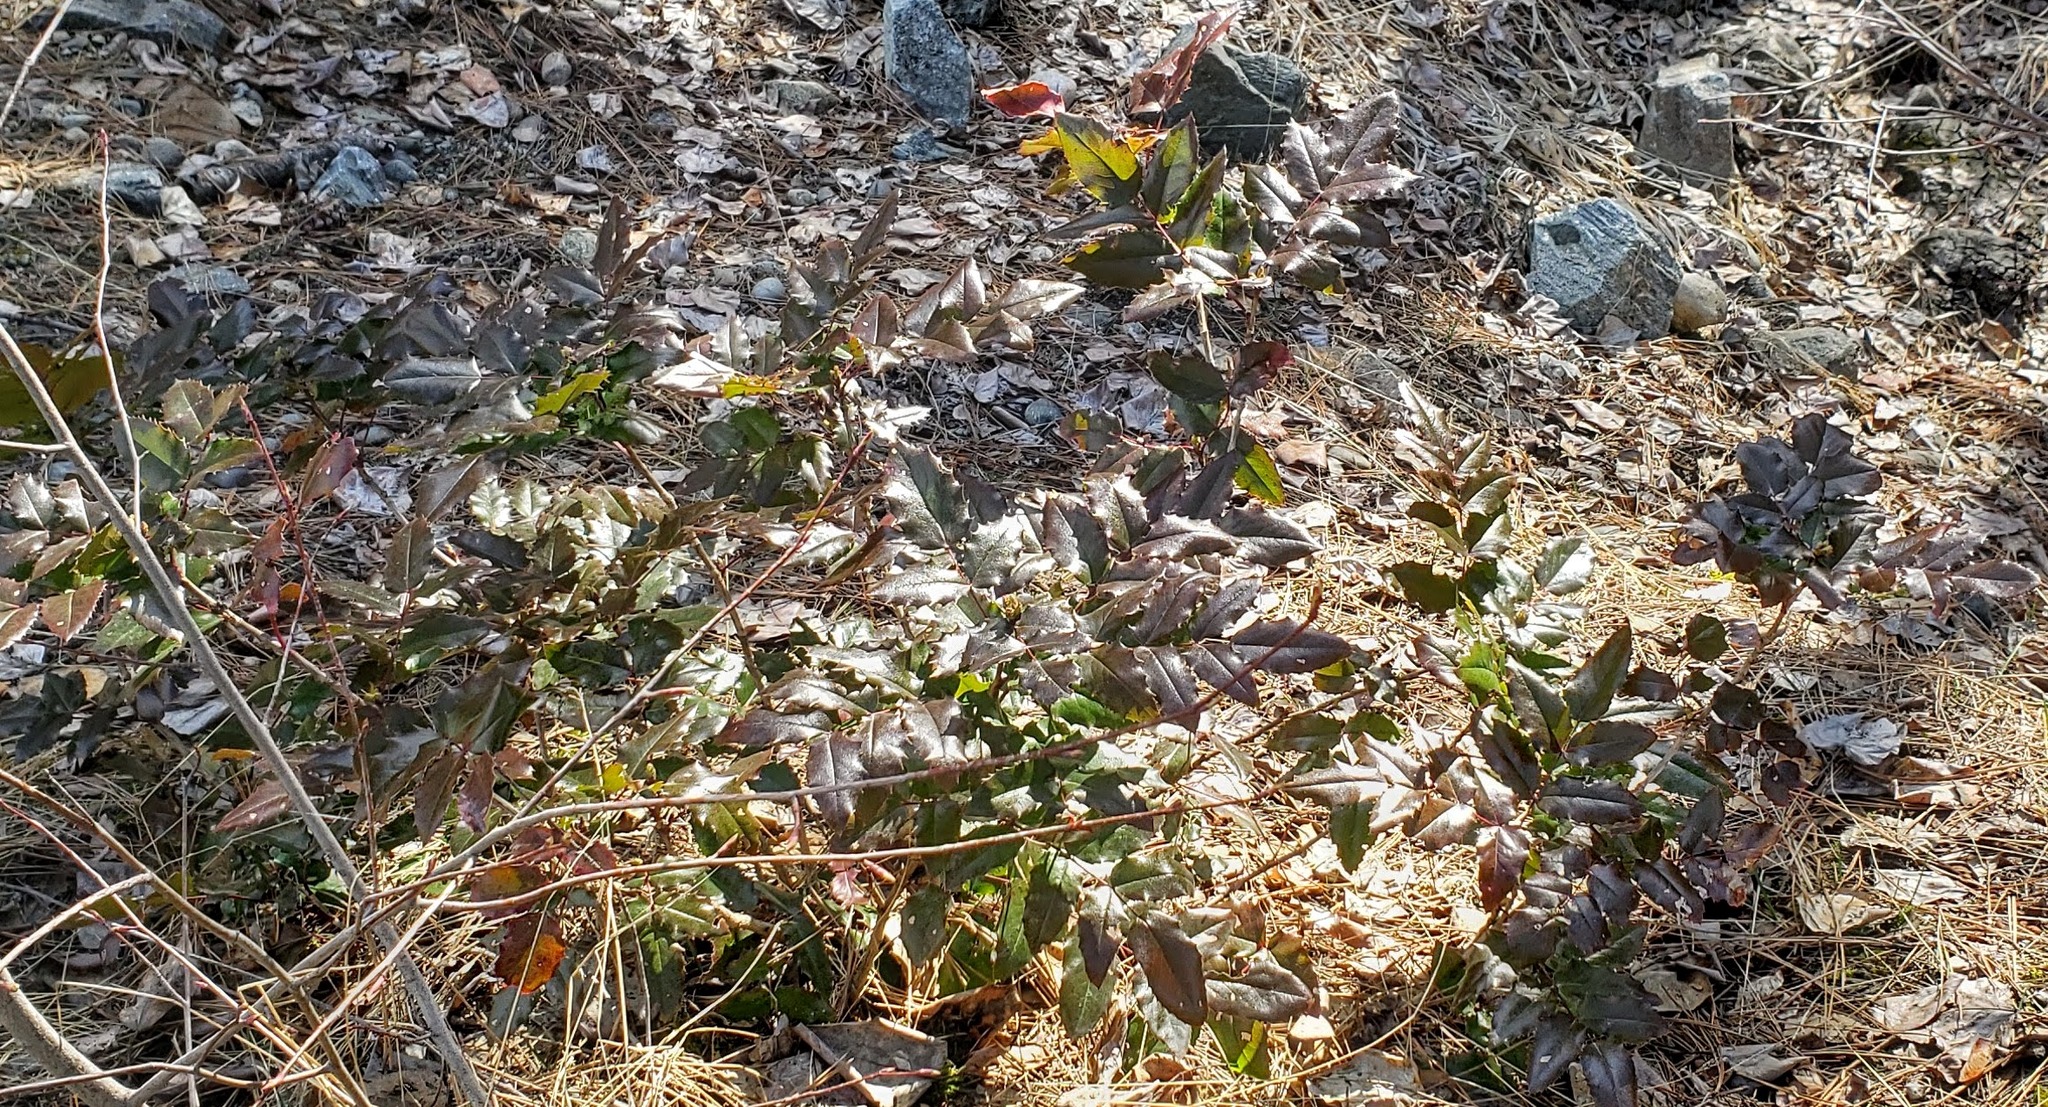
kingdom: Plantae
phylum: Tracheophyta
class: Magnoliopsida
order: Ranunculales
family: Berberidaceae
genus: Mahonia
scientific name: Mahonia aquifolium
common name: Oregon-grape
